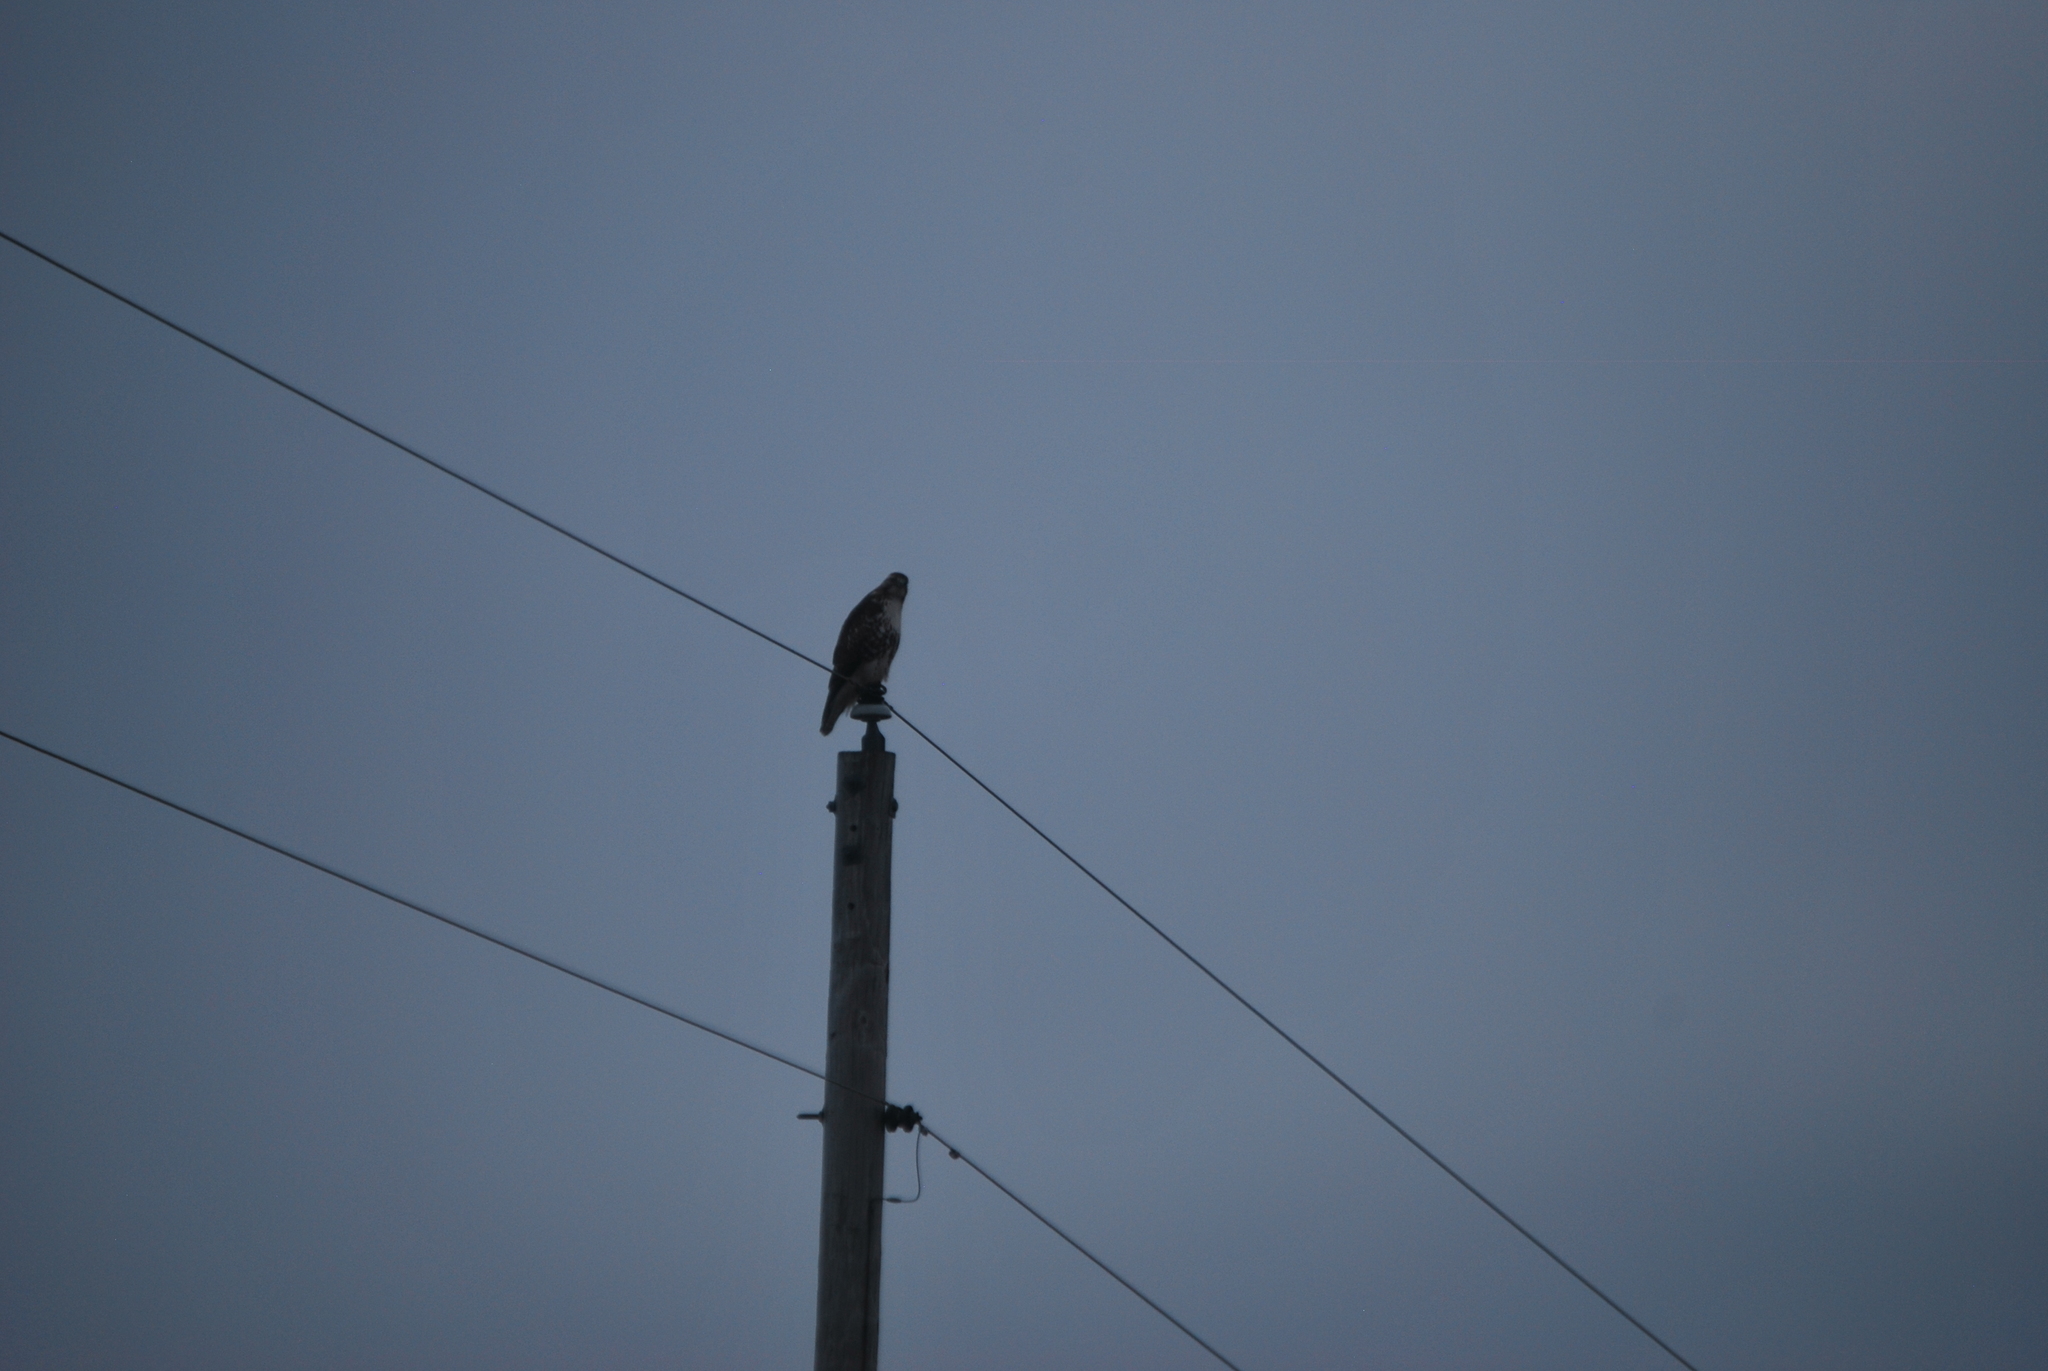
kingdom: Animalia
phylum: Chordata
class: Aves
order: Accipitriformes
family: Accipitridae
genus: Buteo
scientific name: Buteo jamaicensis
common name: Red-tailed hawk
